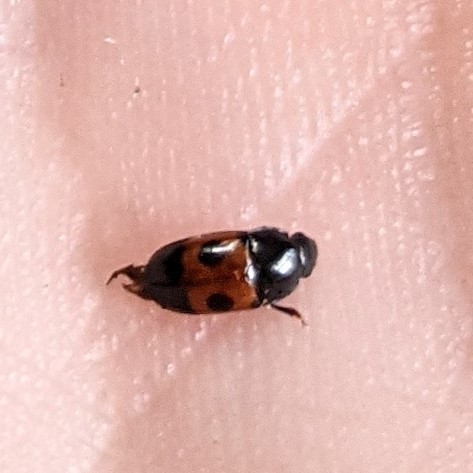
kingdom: Animalia
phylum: Arthropoda
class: Insecta
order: Coleoptera
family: Nitidulidae
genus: Glischrochilus
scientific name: Glischrochilus sanguinolentus
